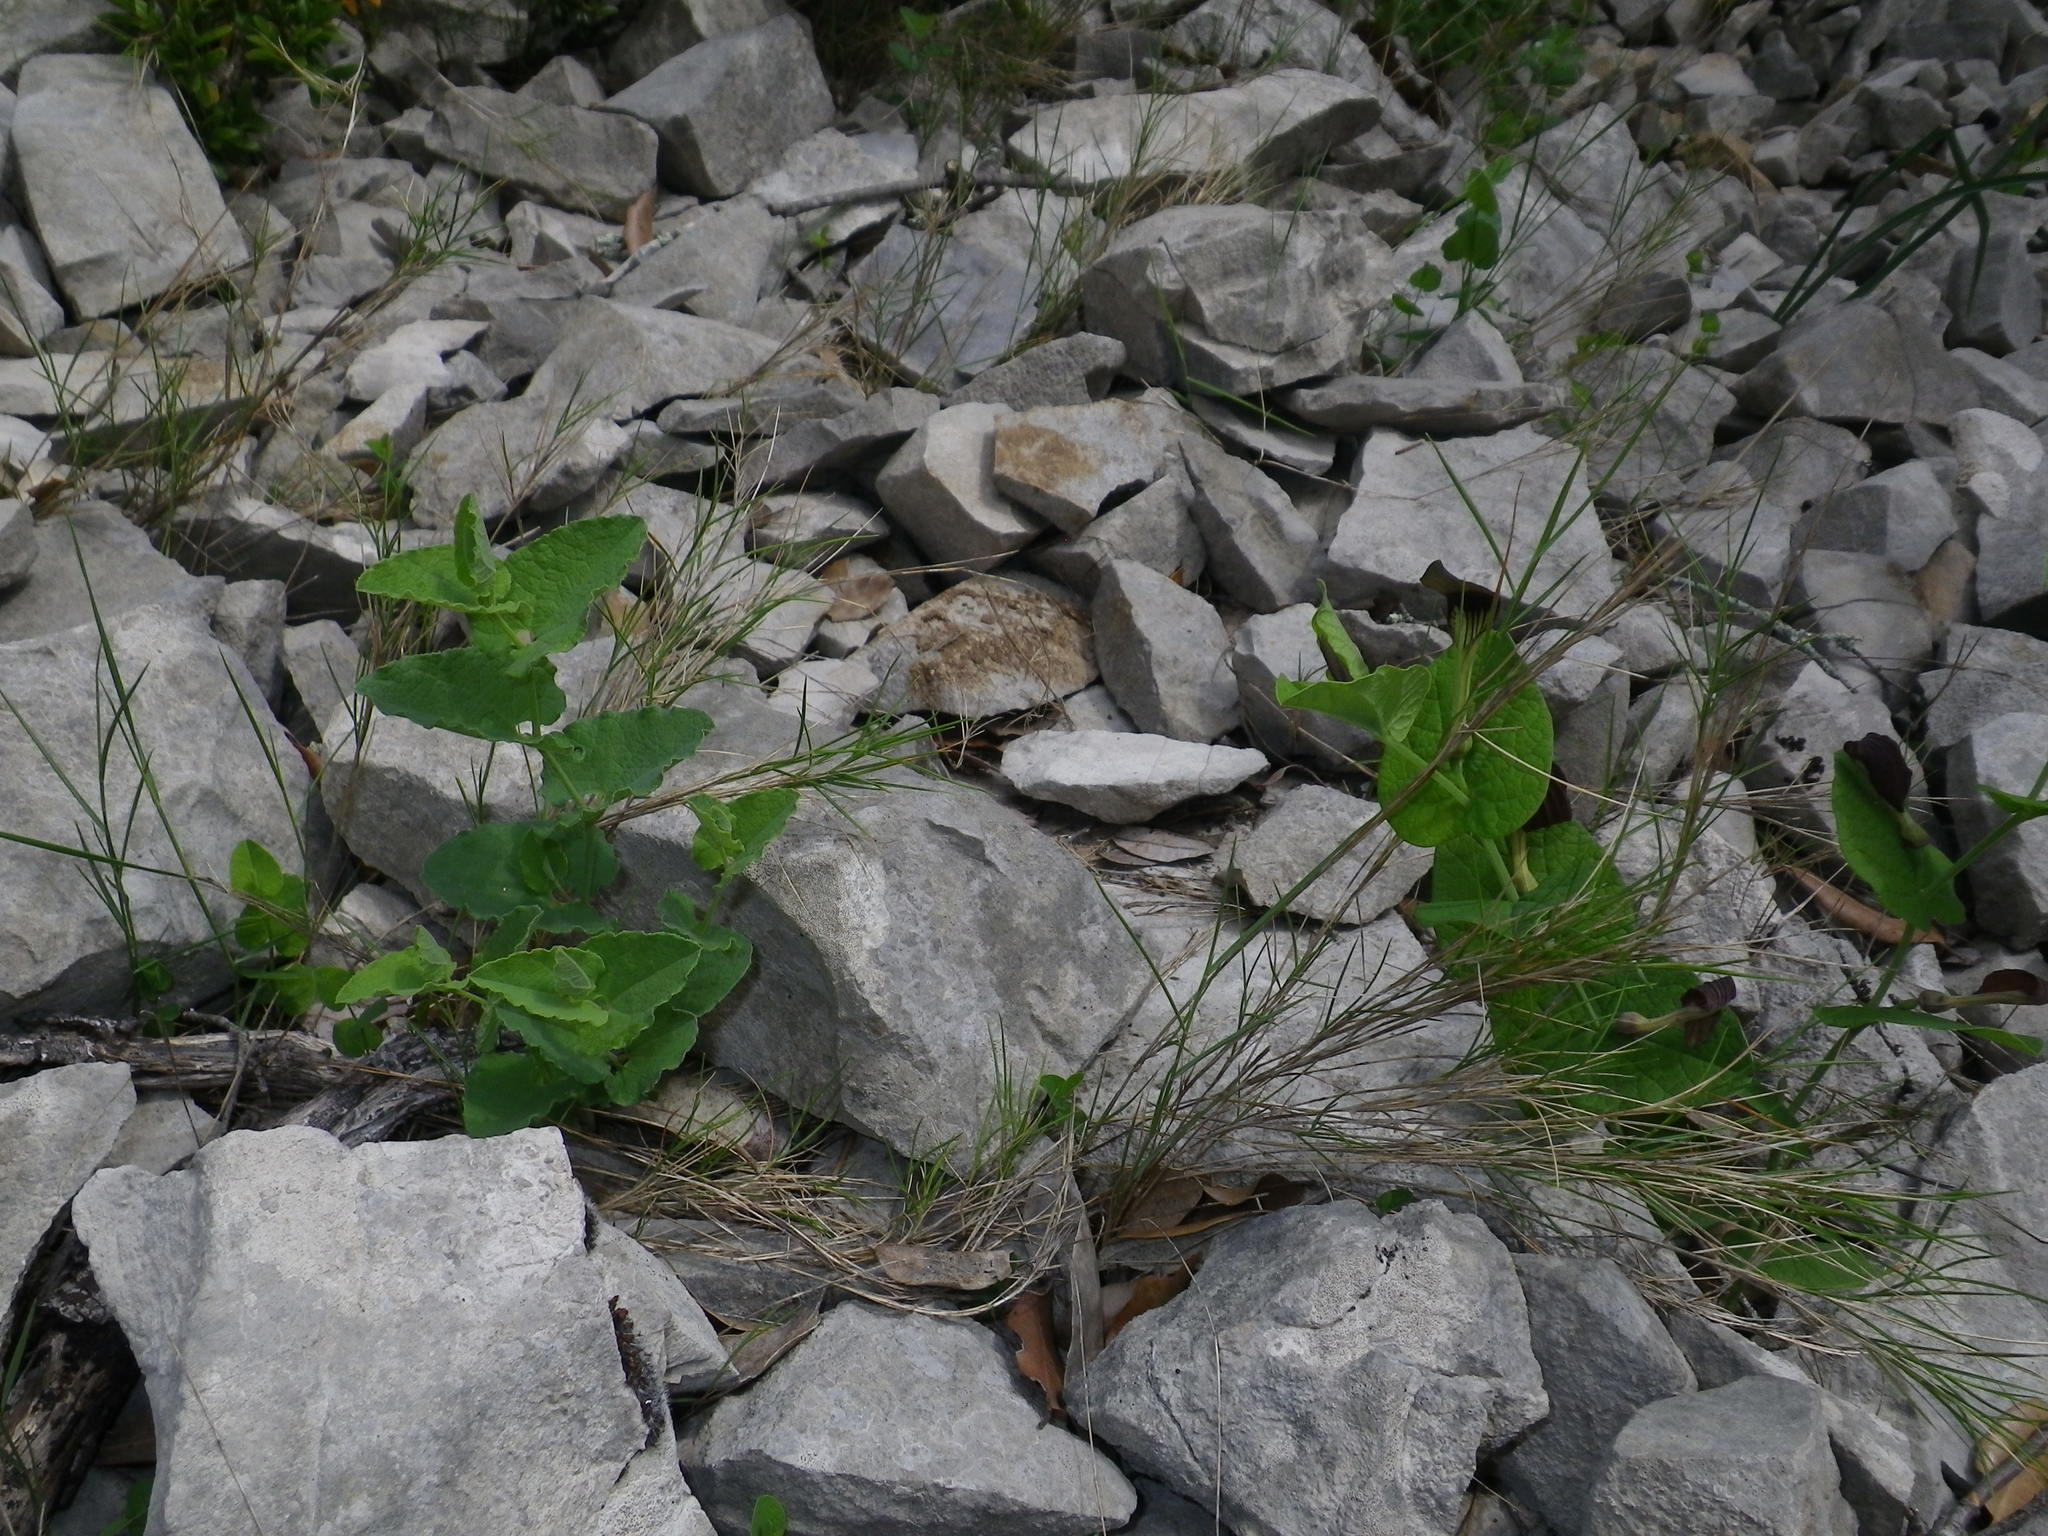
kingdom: Plantae
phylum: Tracheophyta
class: Magnoliopsida
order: Piperales
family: Aristolochiaceae
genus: Aristolochia
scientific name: Aristolochia pistolochia
